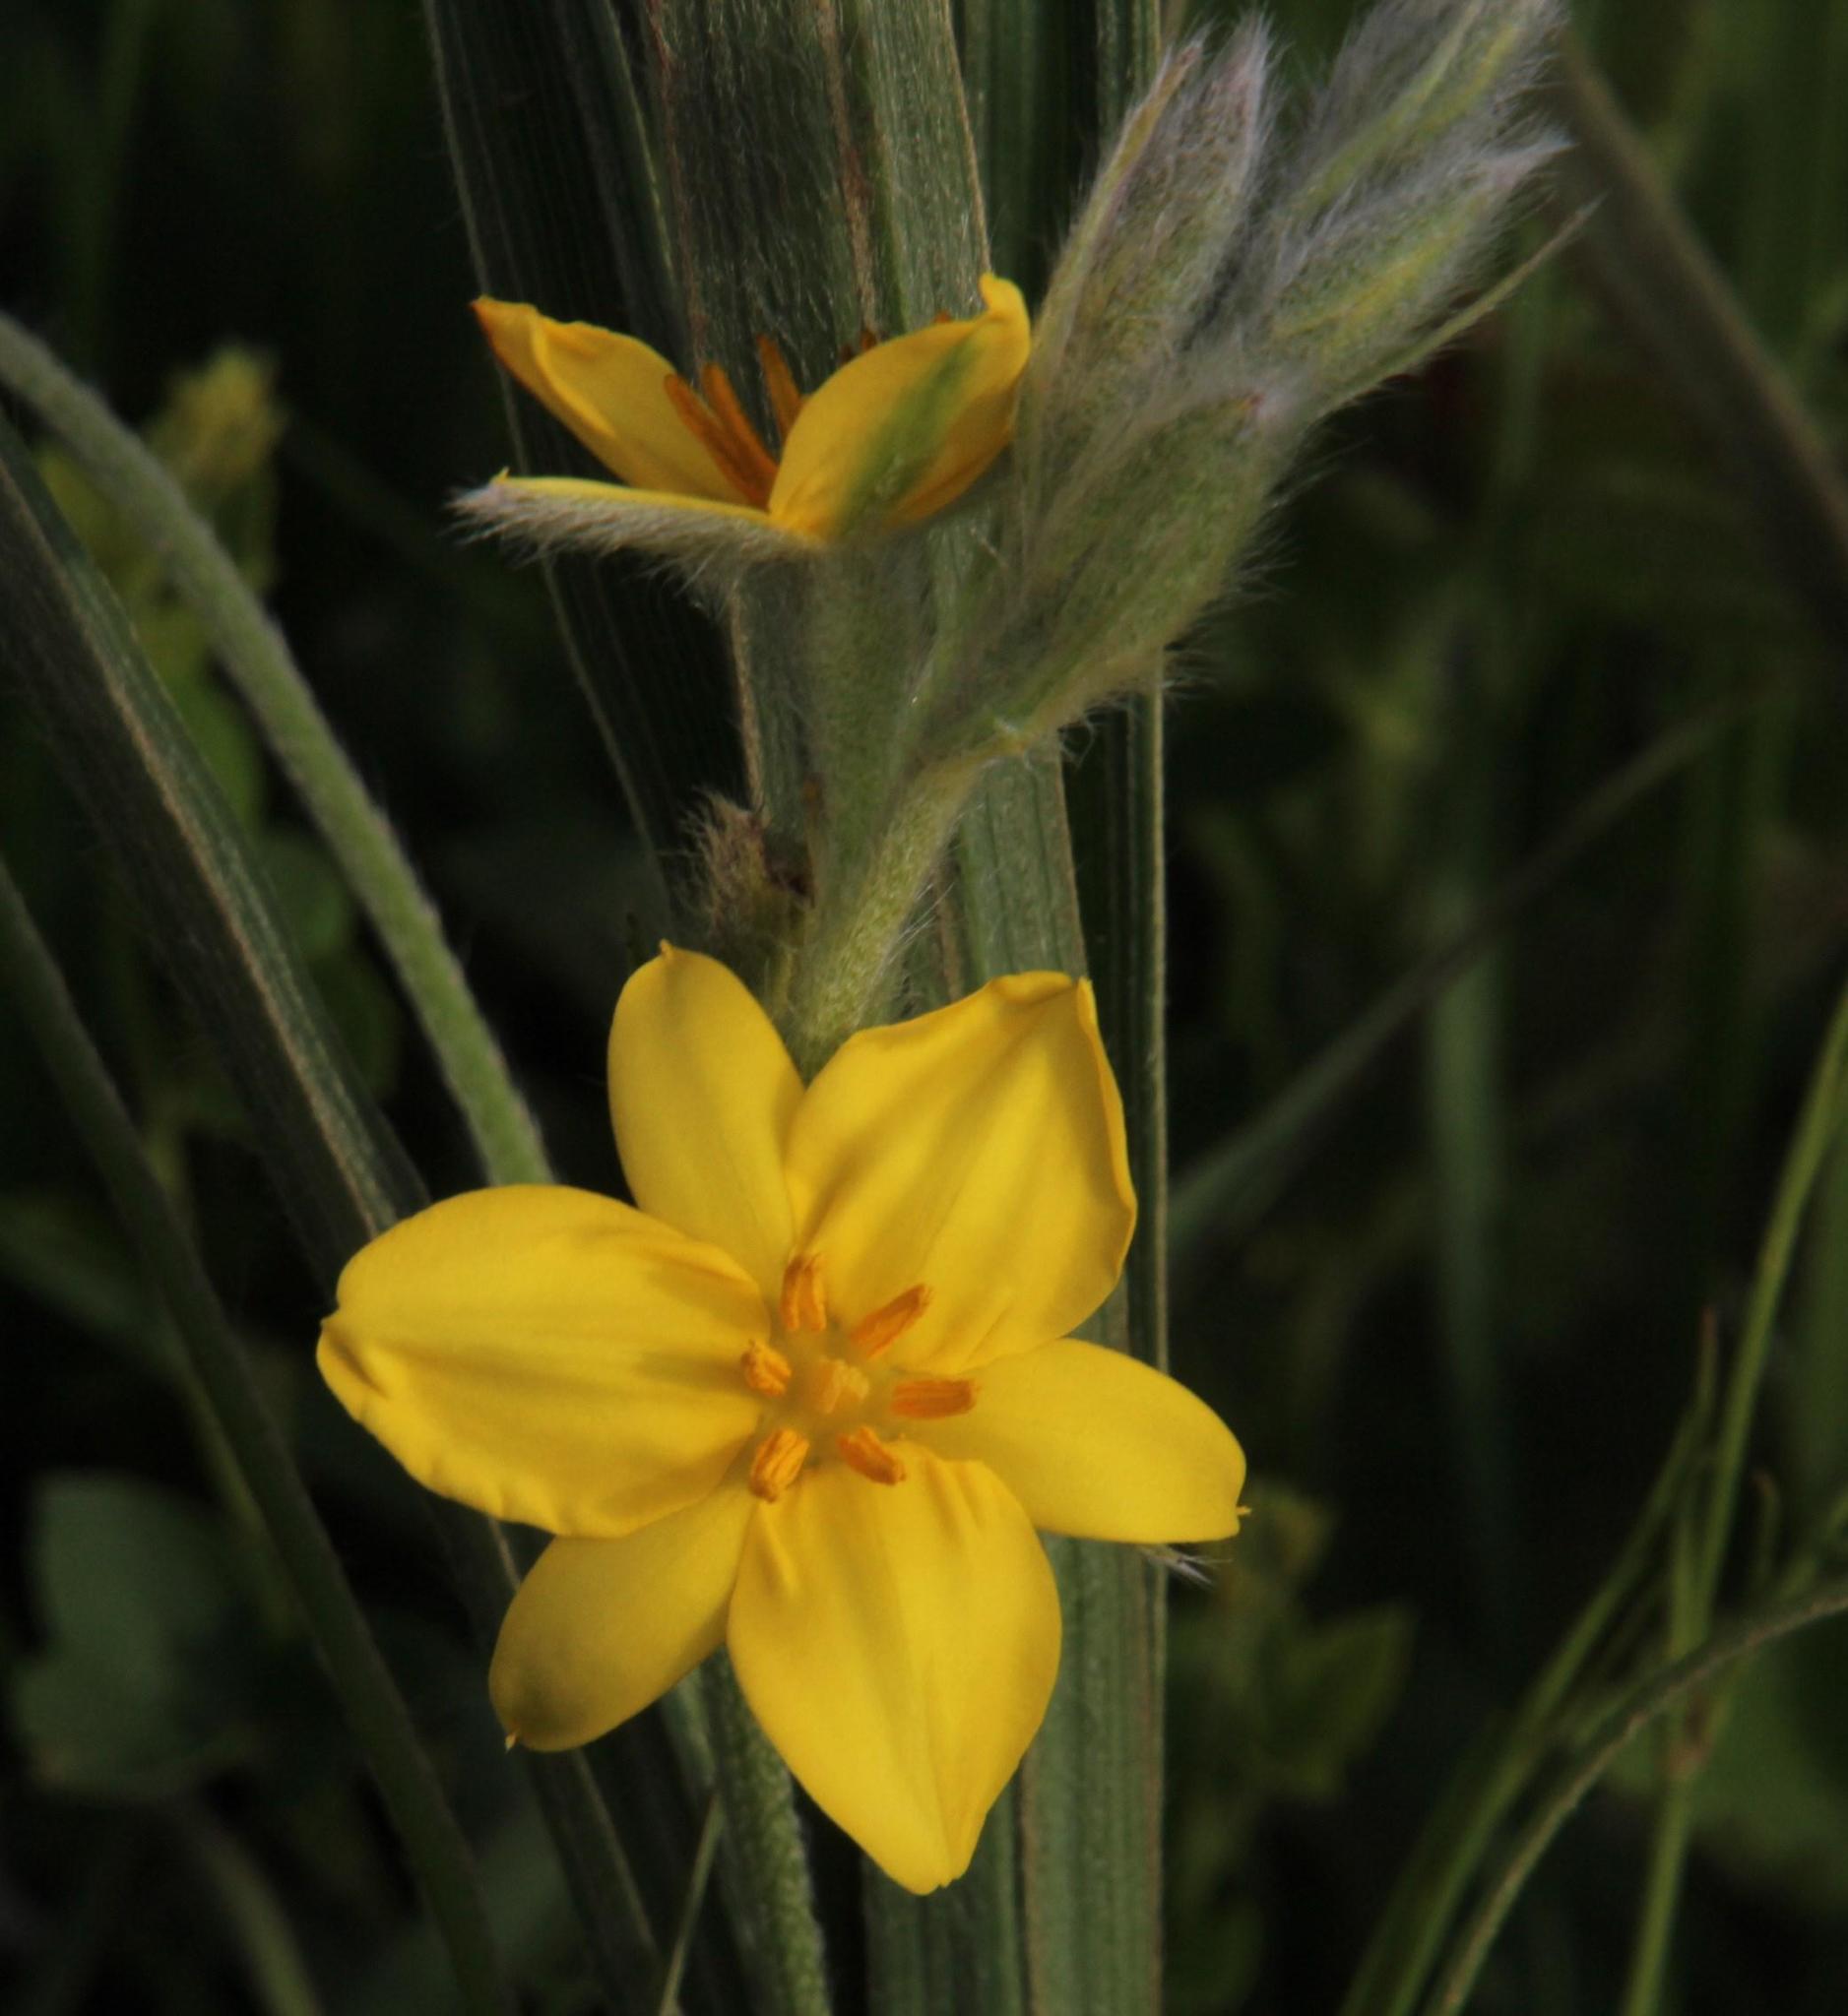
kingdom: Plantae
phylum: Tracheophyta
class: Liliopsida
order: Asparagales
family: Hypoxidaceae
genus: Hypoxis
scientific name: Hypoxis rigidula
